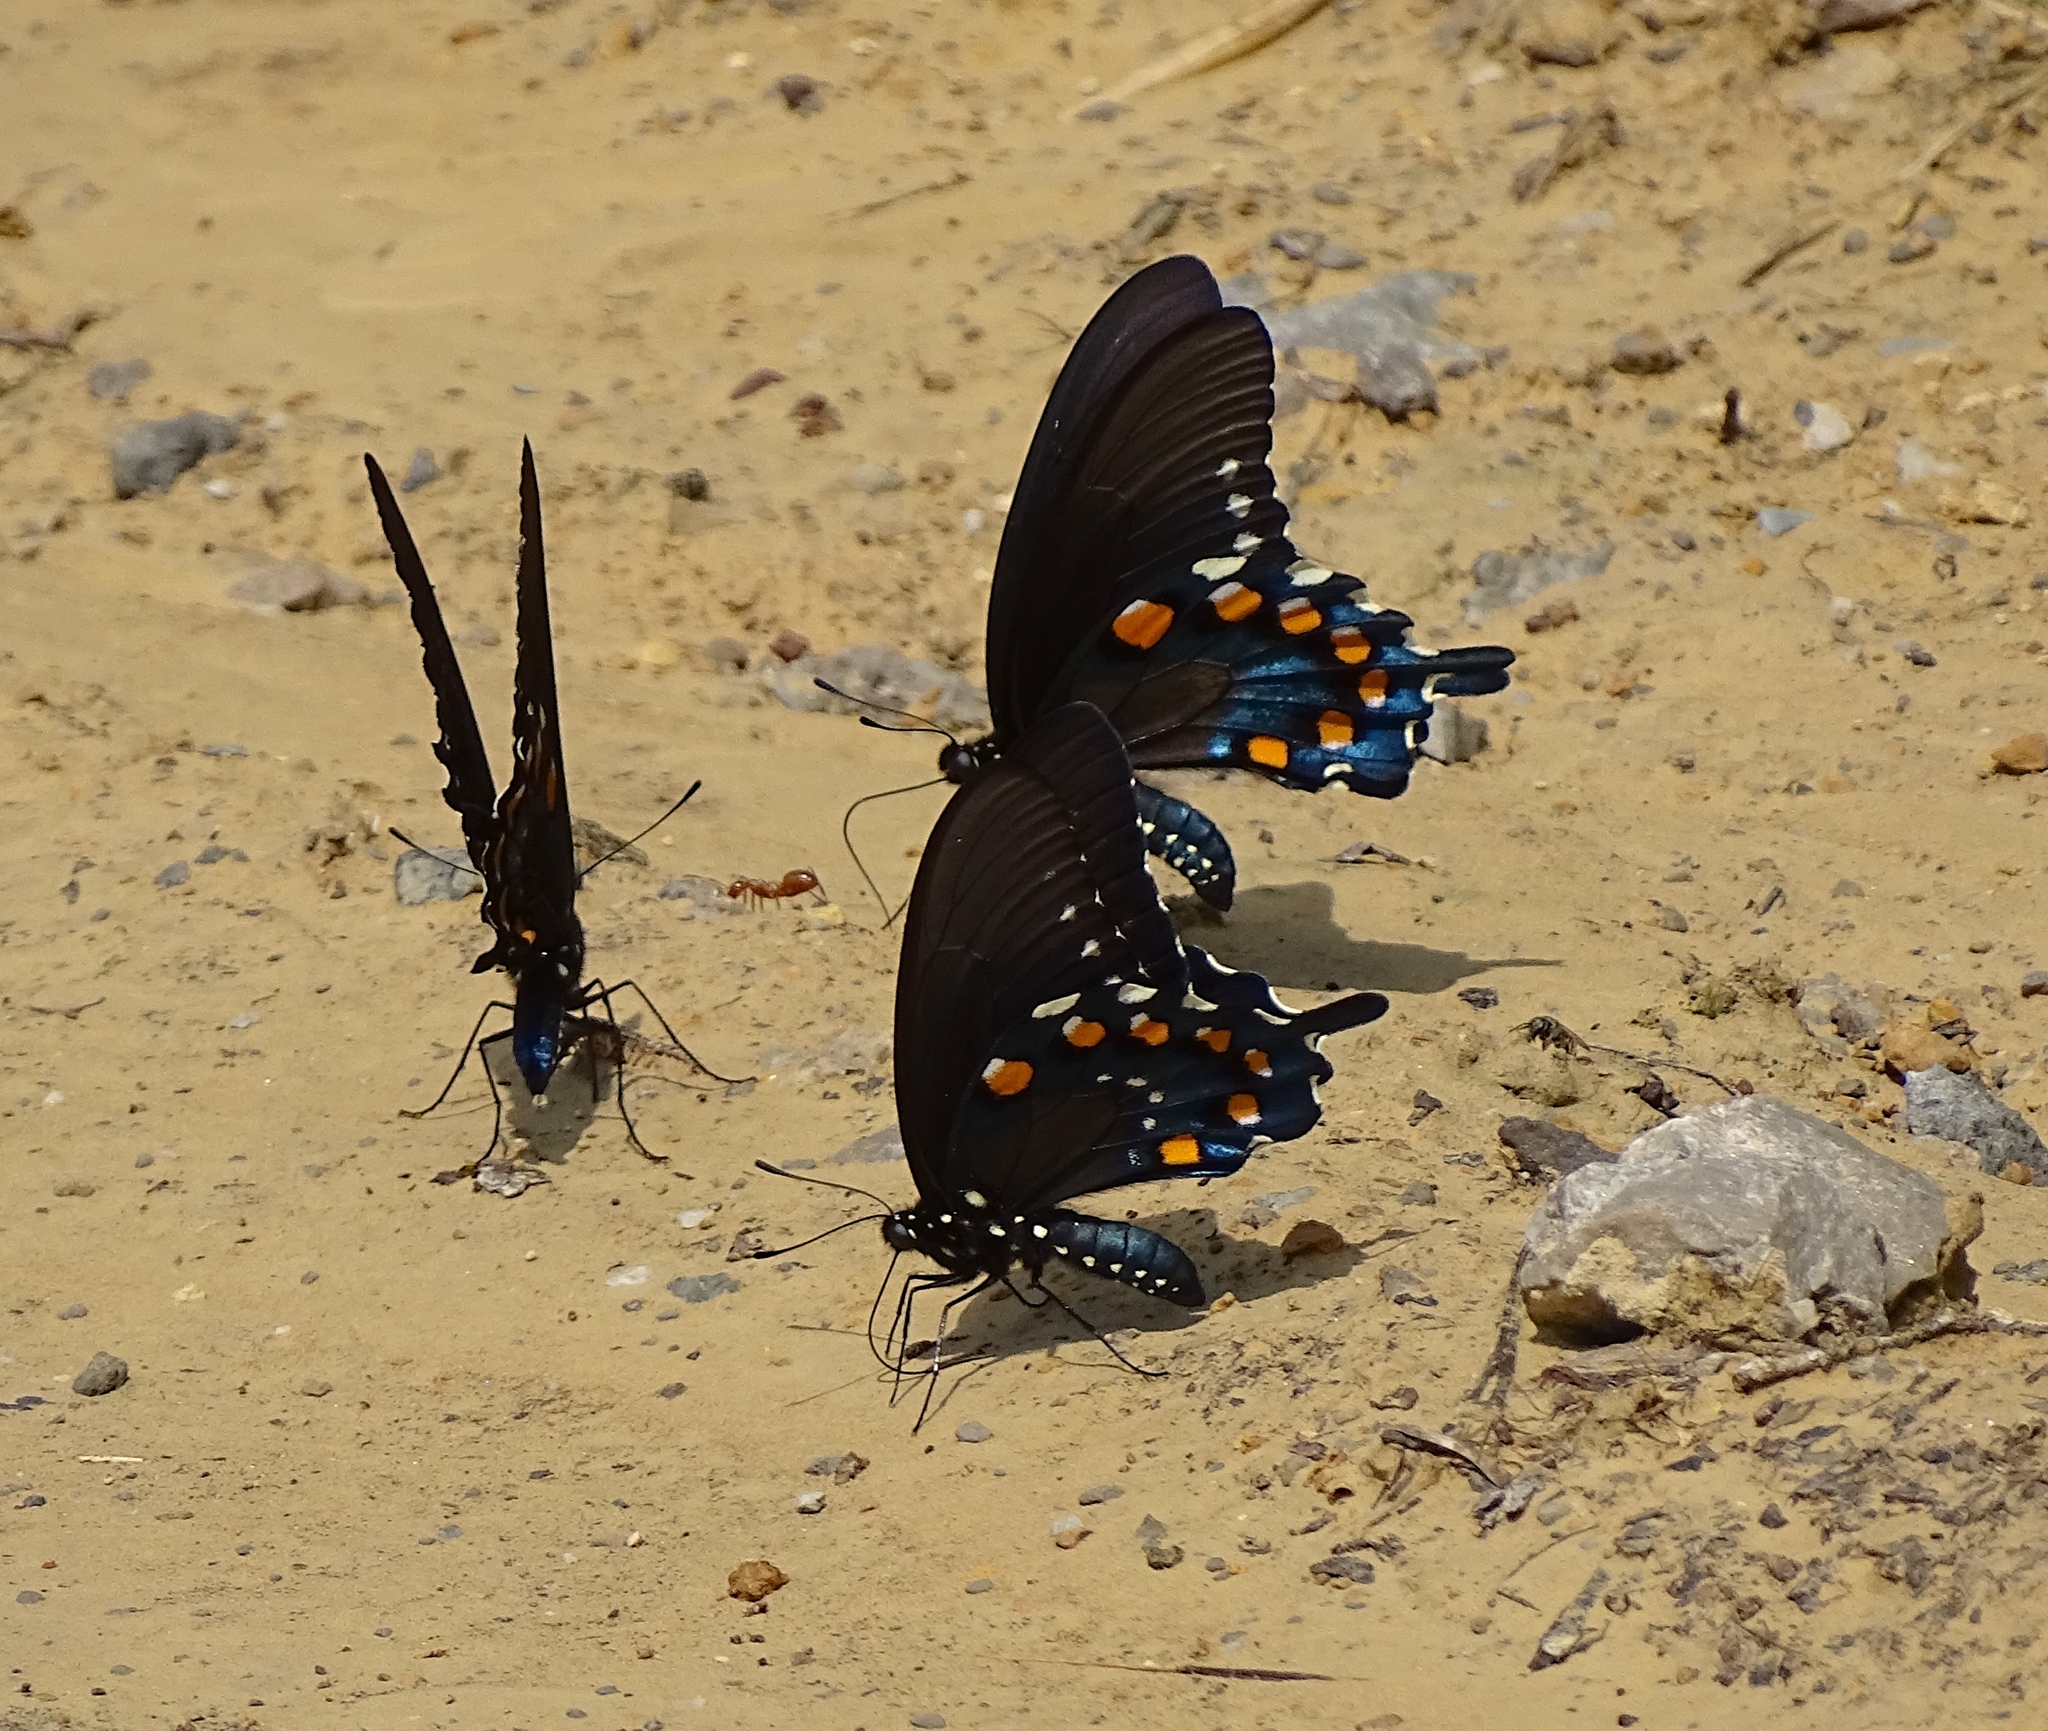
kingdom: Animalia
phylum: Arthropoda
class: Insecta
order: Lepidoptera
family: Papilionidae
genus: Battus
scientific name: Battus philenor
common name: Pipevine swallowtail
